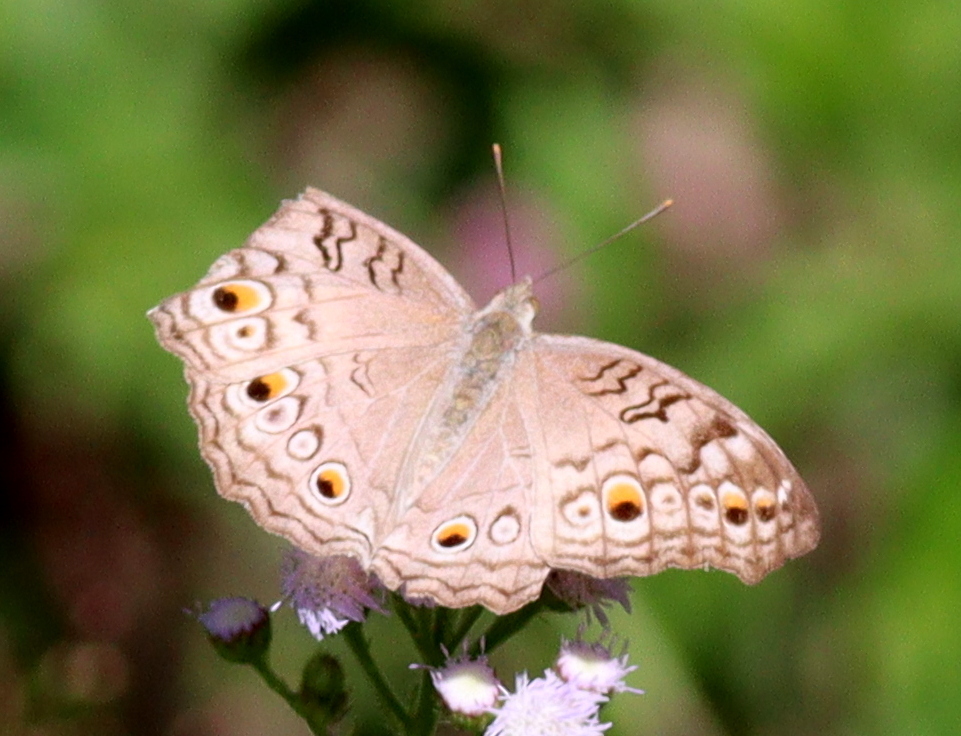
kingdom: Animalia
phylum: Arthropoda
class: Insecta
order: Lepidoptera
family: Nymphalidae
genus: Junonia
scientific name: Junonia atlites
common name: Grey pansy
